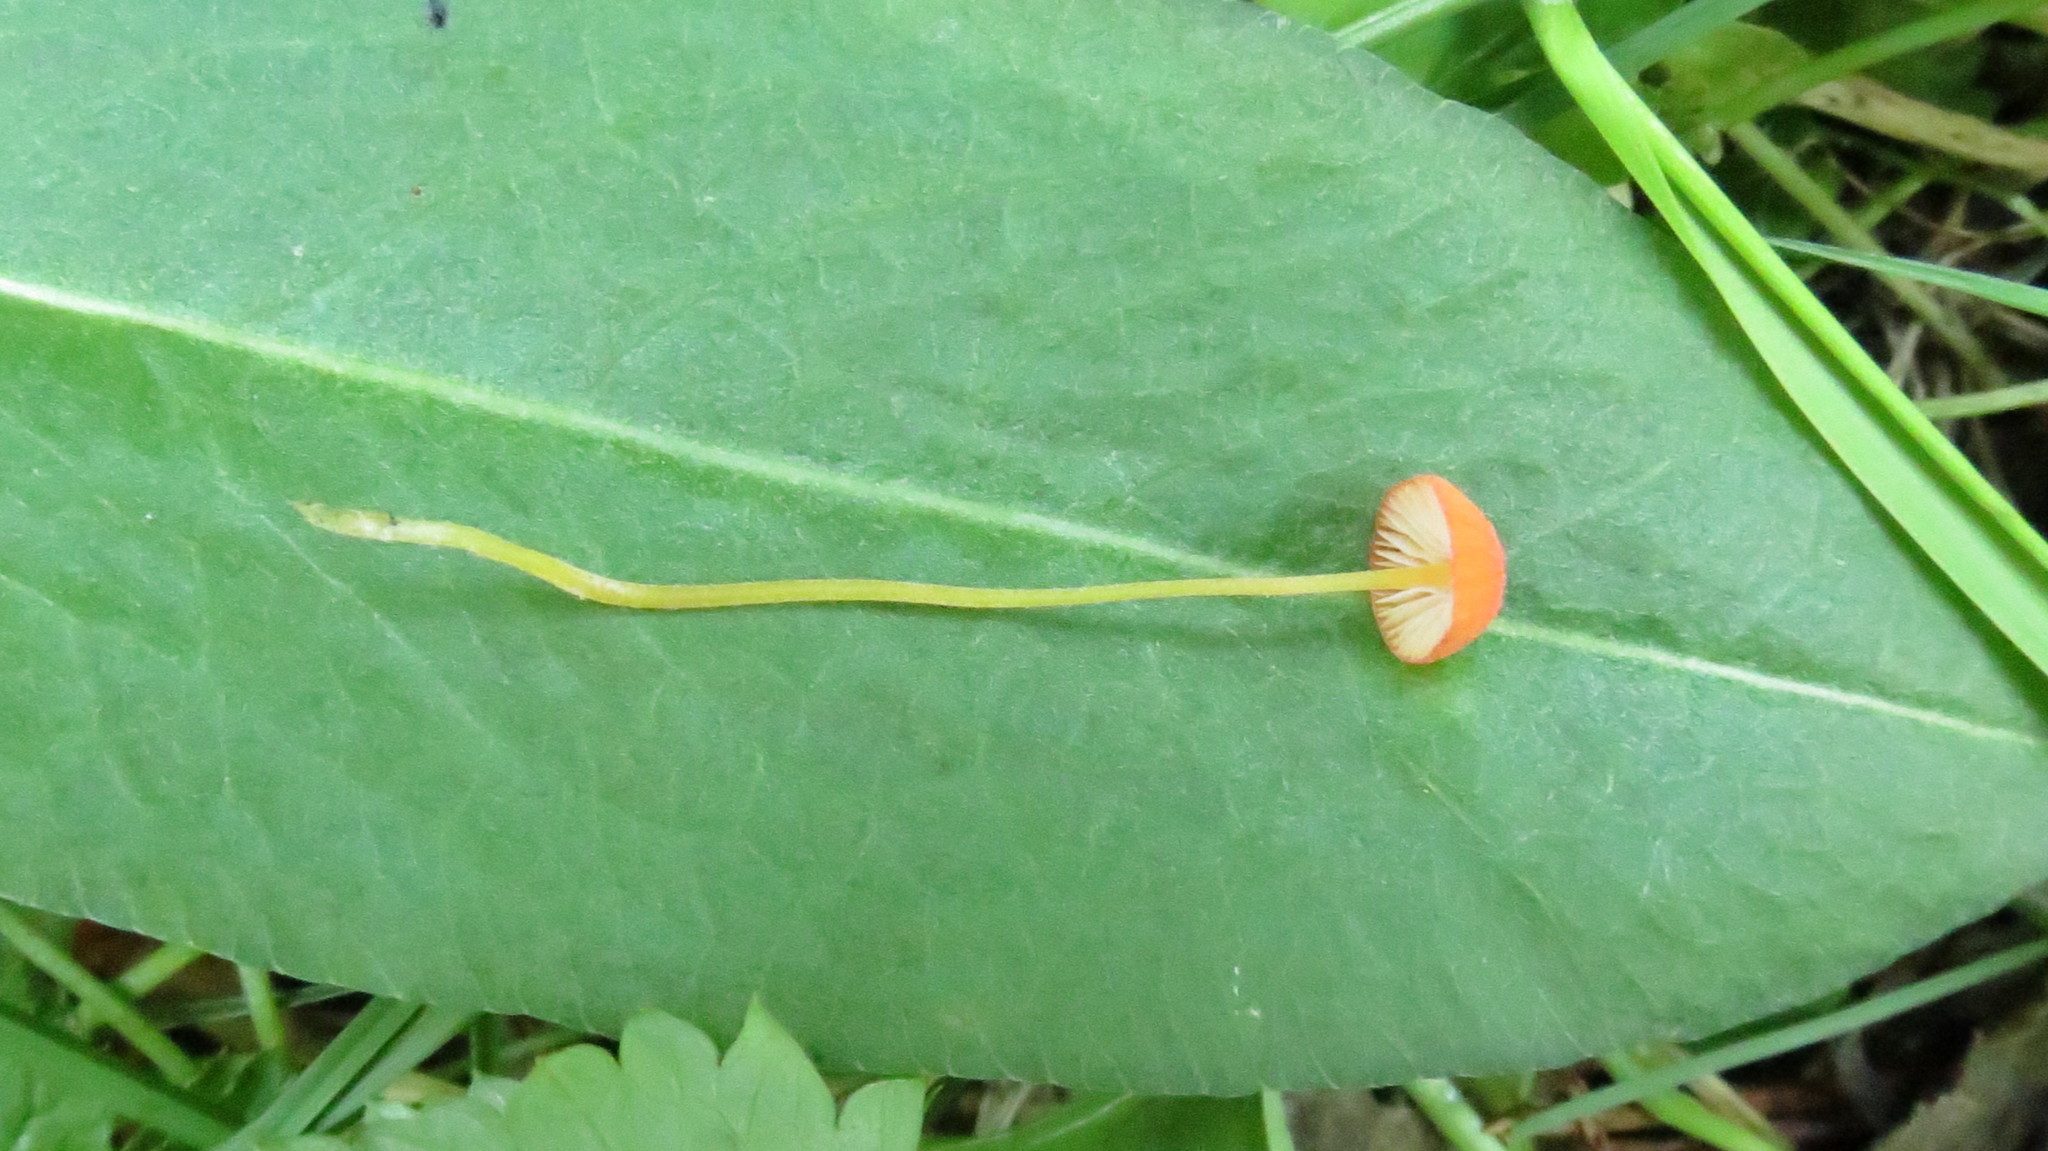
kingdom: Fungi
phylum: Basidiomycota
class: Agaricomycetes
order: Agaricales
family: Mycenaceae
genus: Mycena
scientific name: Mycena acicula
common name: Orange bonnet
